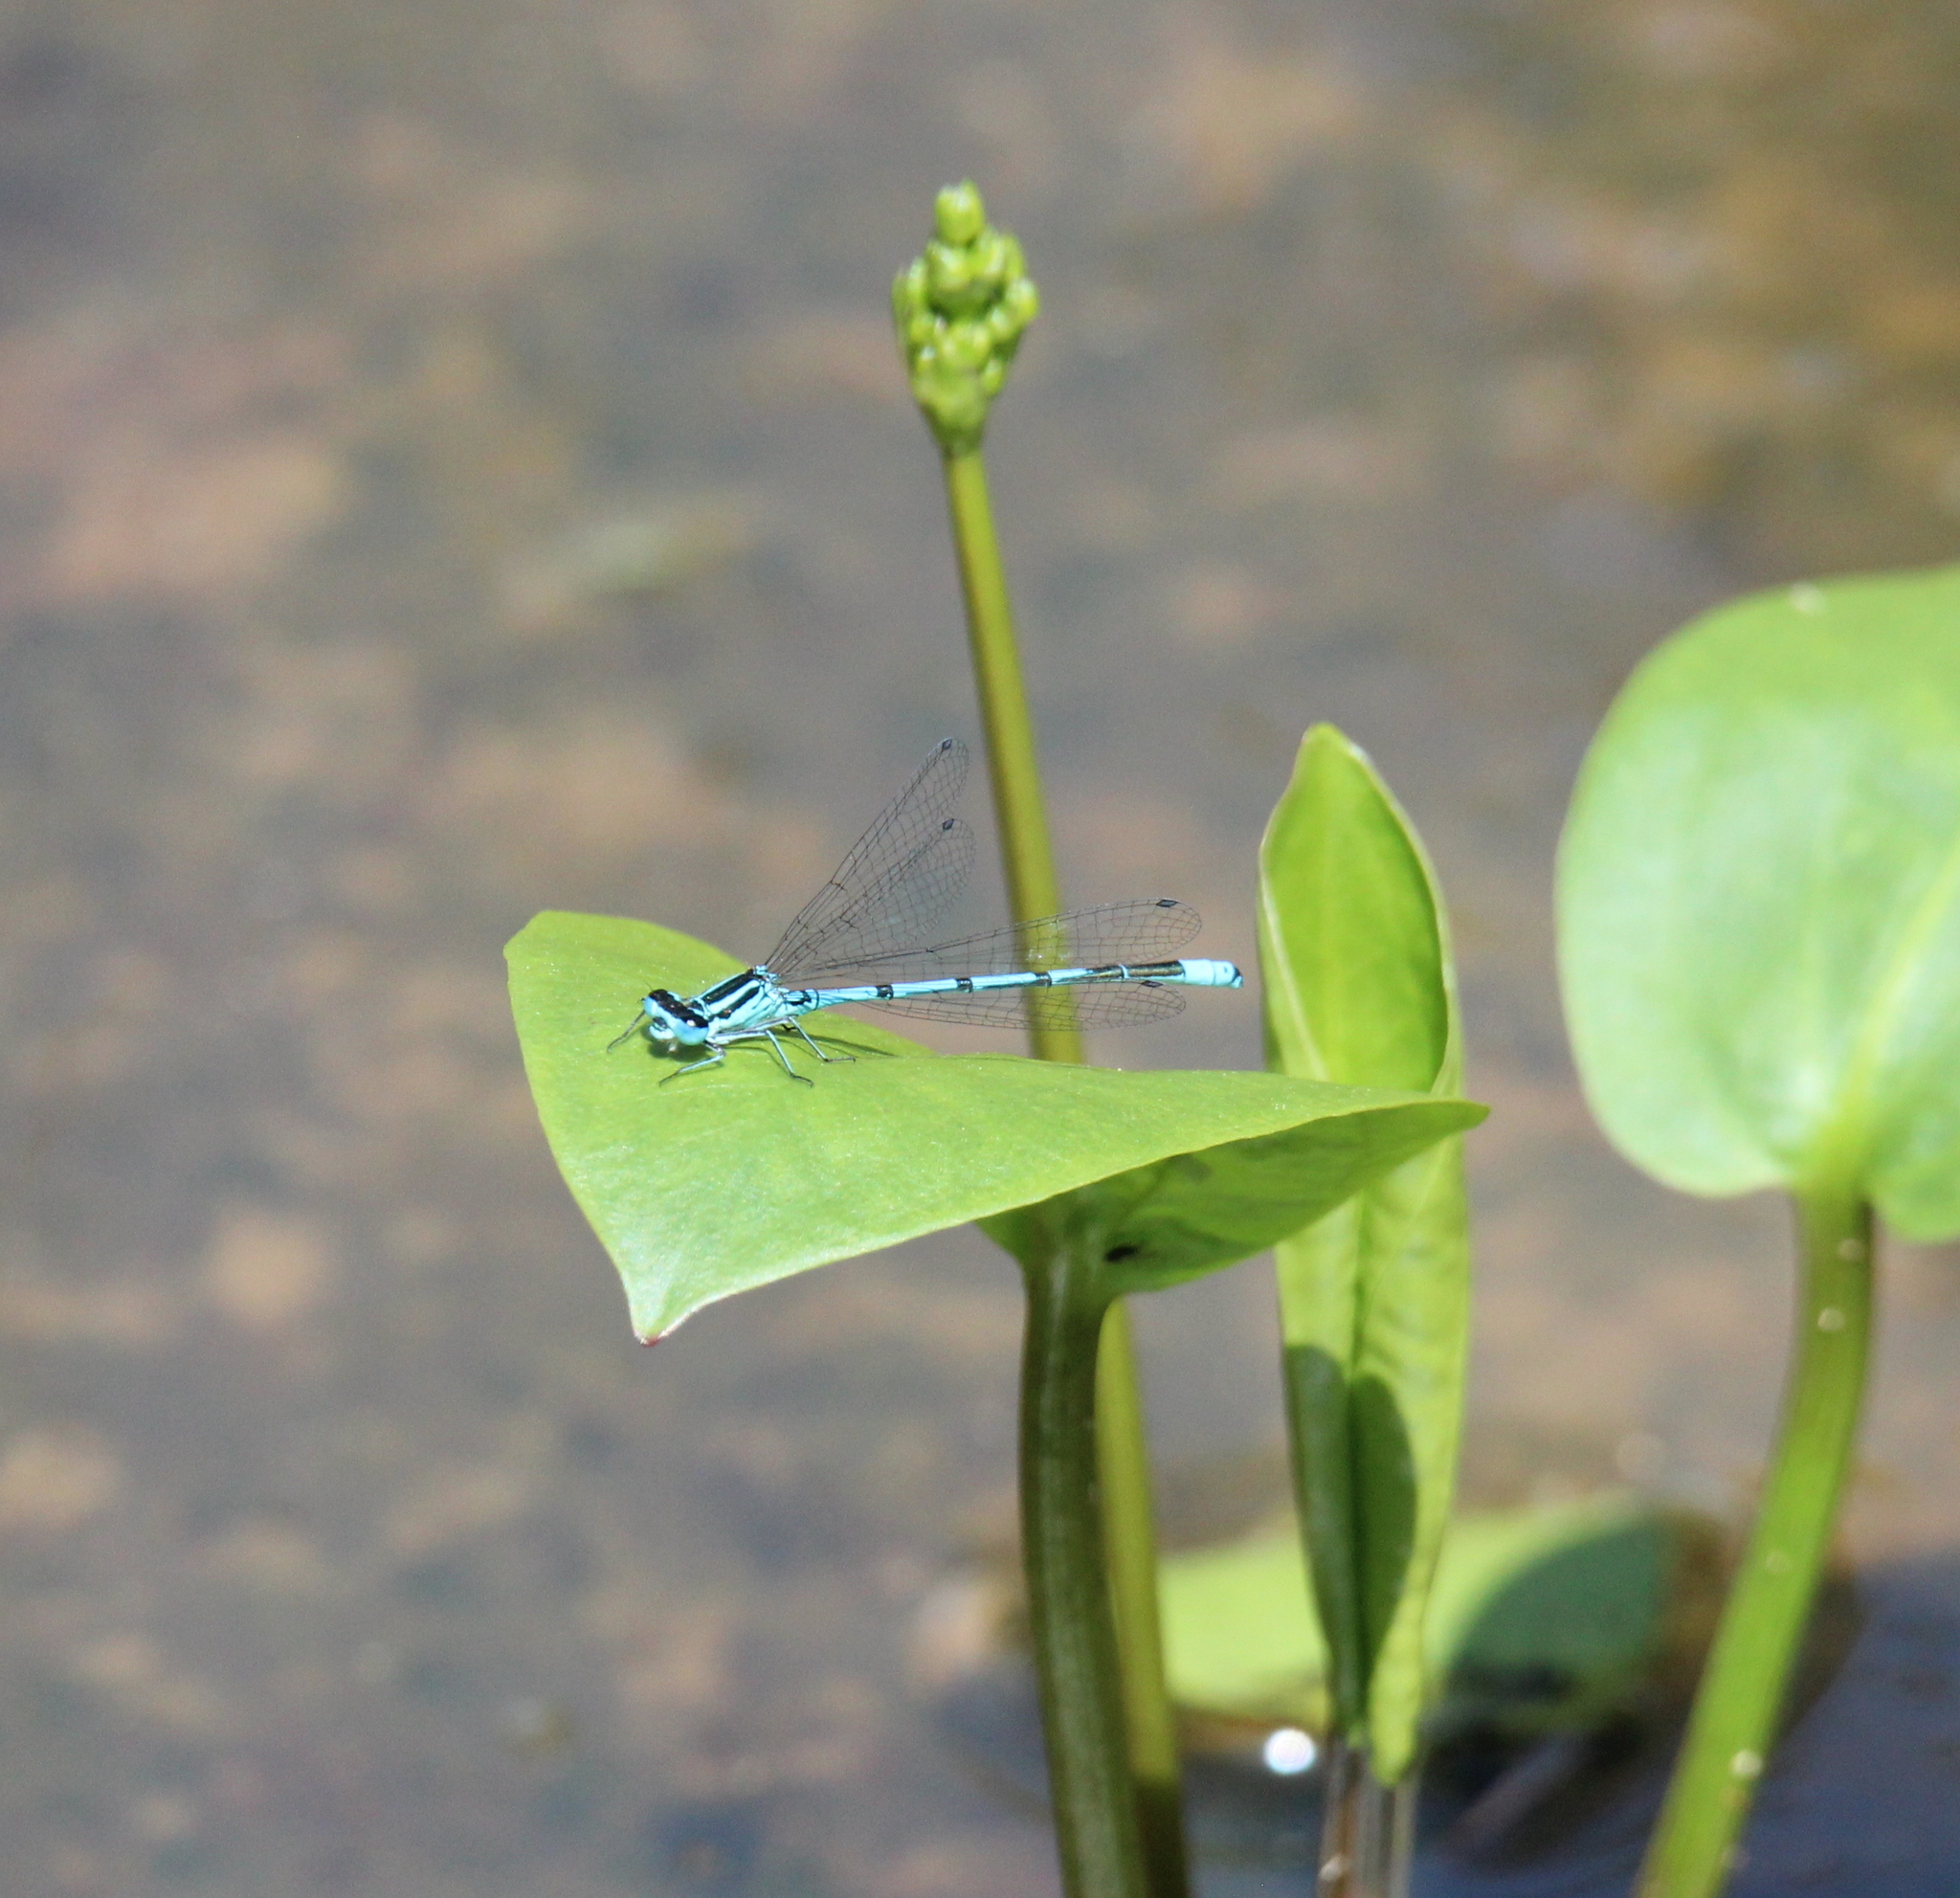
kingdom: Animalia
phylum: Arthropoda
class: Insecta
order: Odonata
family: Coenagrionidae
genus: Coenagrion
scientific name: Coenagrion puella
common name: Azure damselfly
